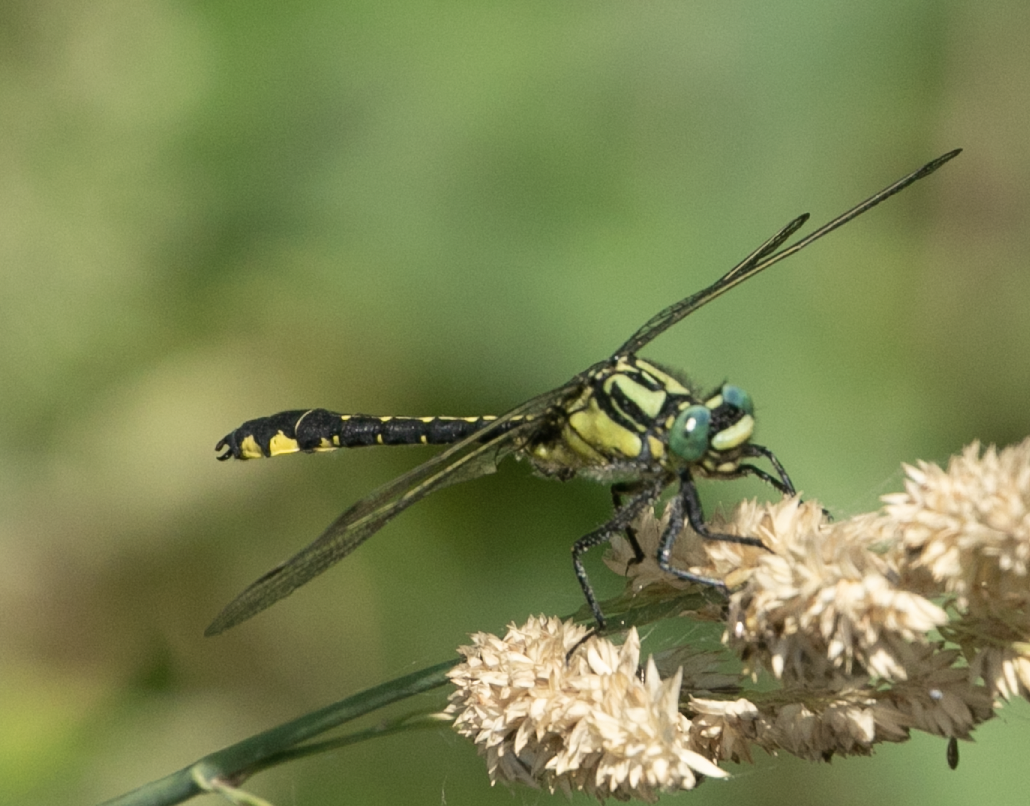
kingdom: Animalia
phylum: Arthropoda
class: Insecta
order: Odonata
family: Gomphidae
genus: Gomphus
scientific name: Gomphus vulgatissimus
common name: Club-tailed dragonfly
